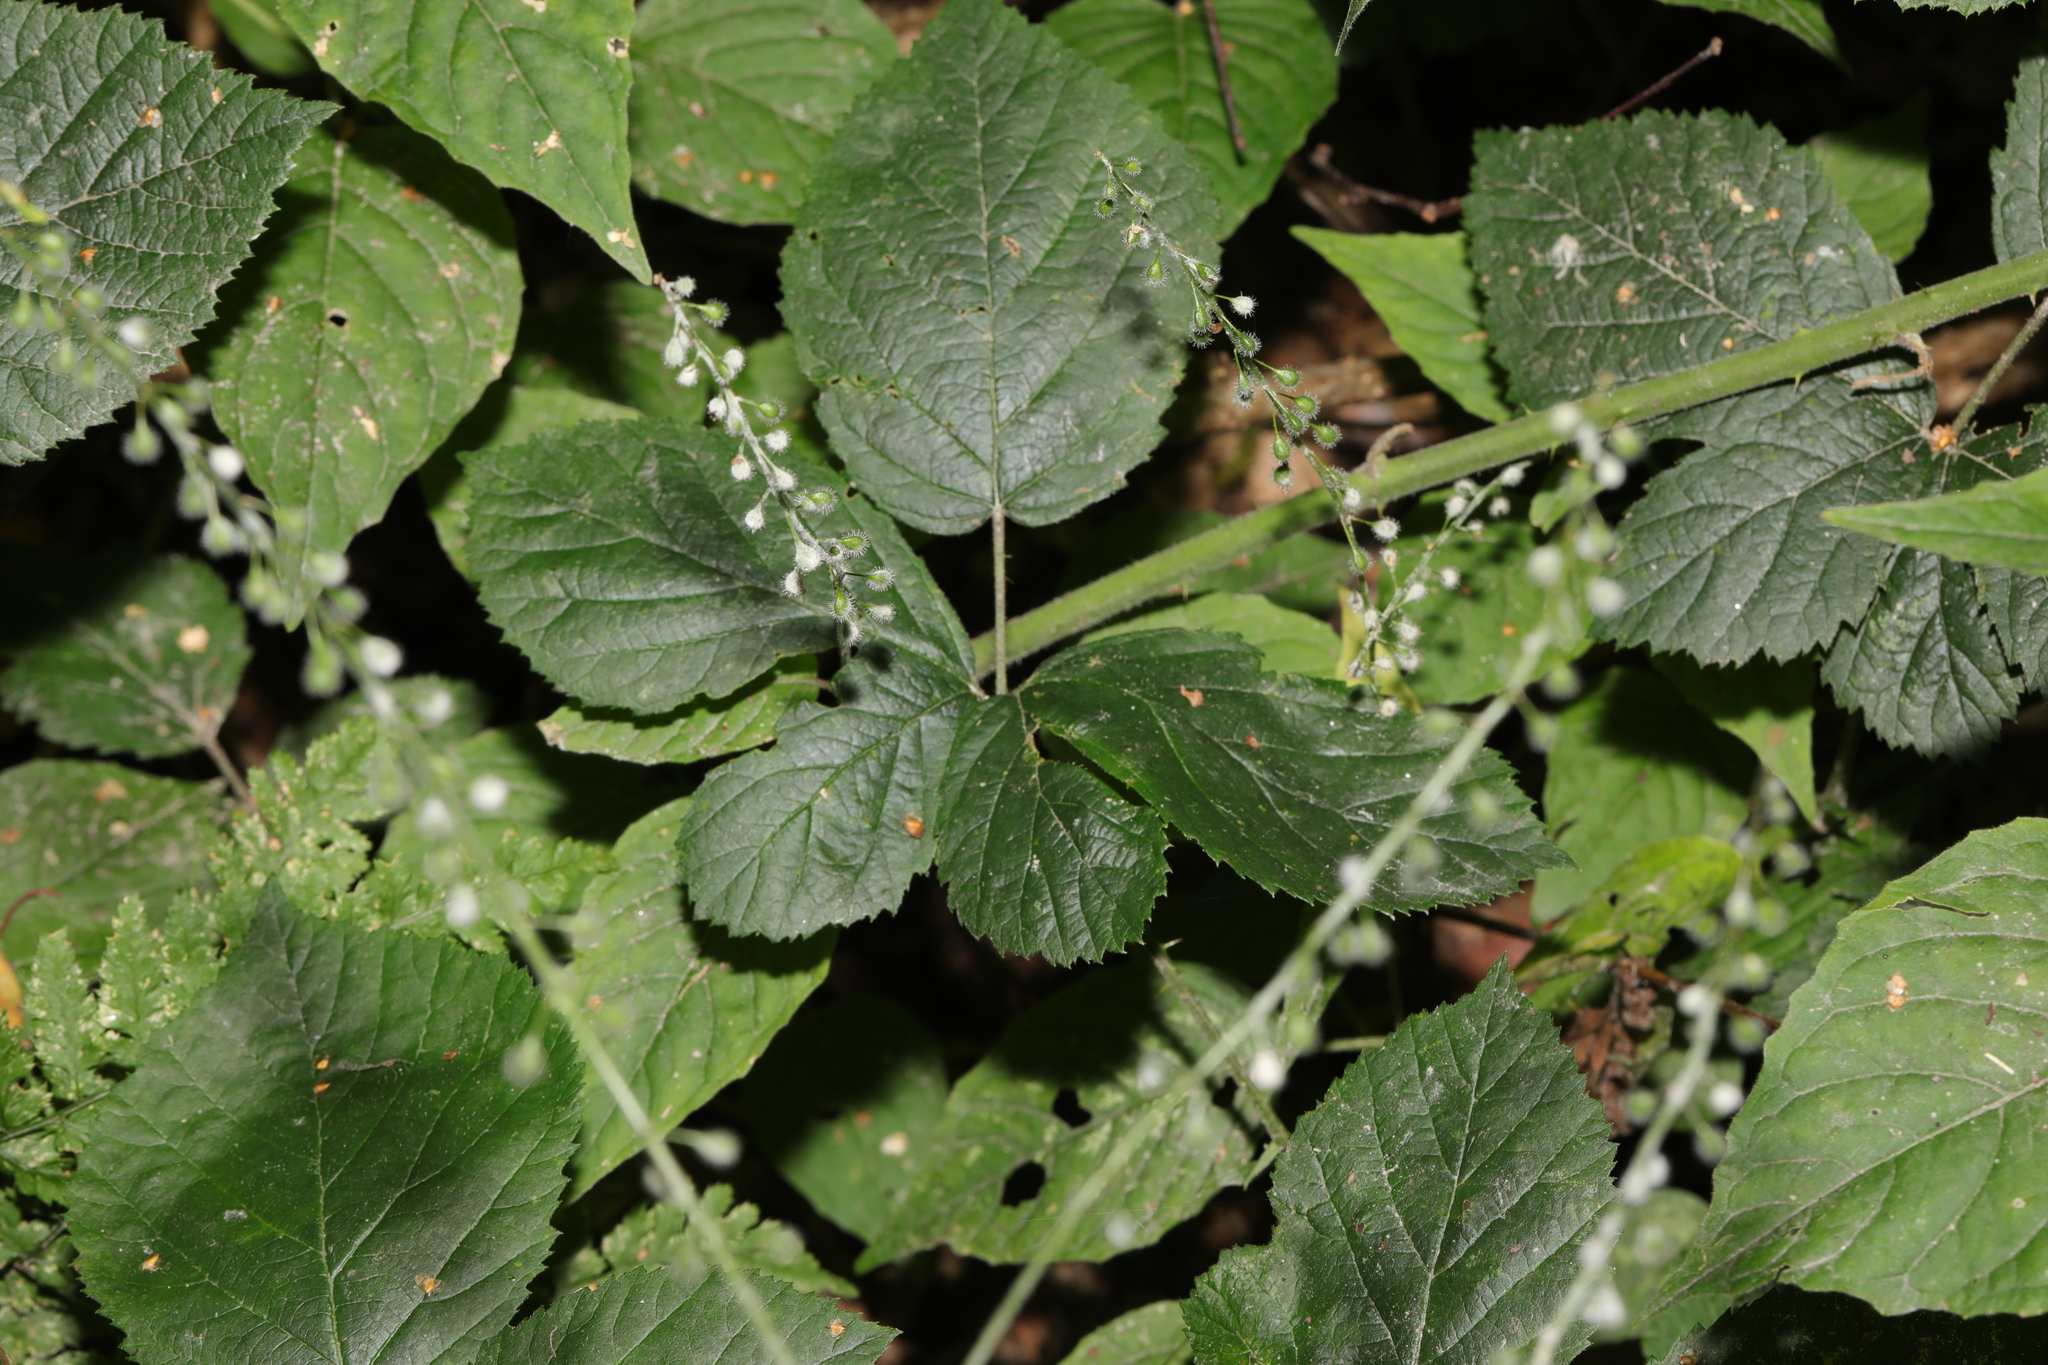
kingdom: Plantae
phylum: Tracheophyta
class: Magnoliopsida
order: Myrtales
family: Onagraceae
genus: Circaea
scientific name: Circaea lutetiana
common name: Enchanter's-nightshade
